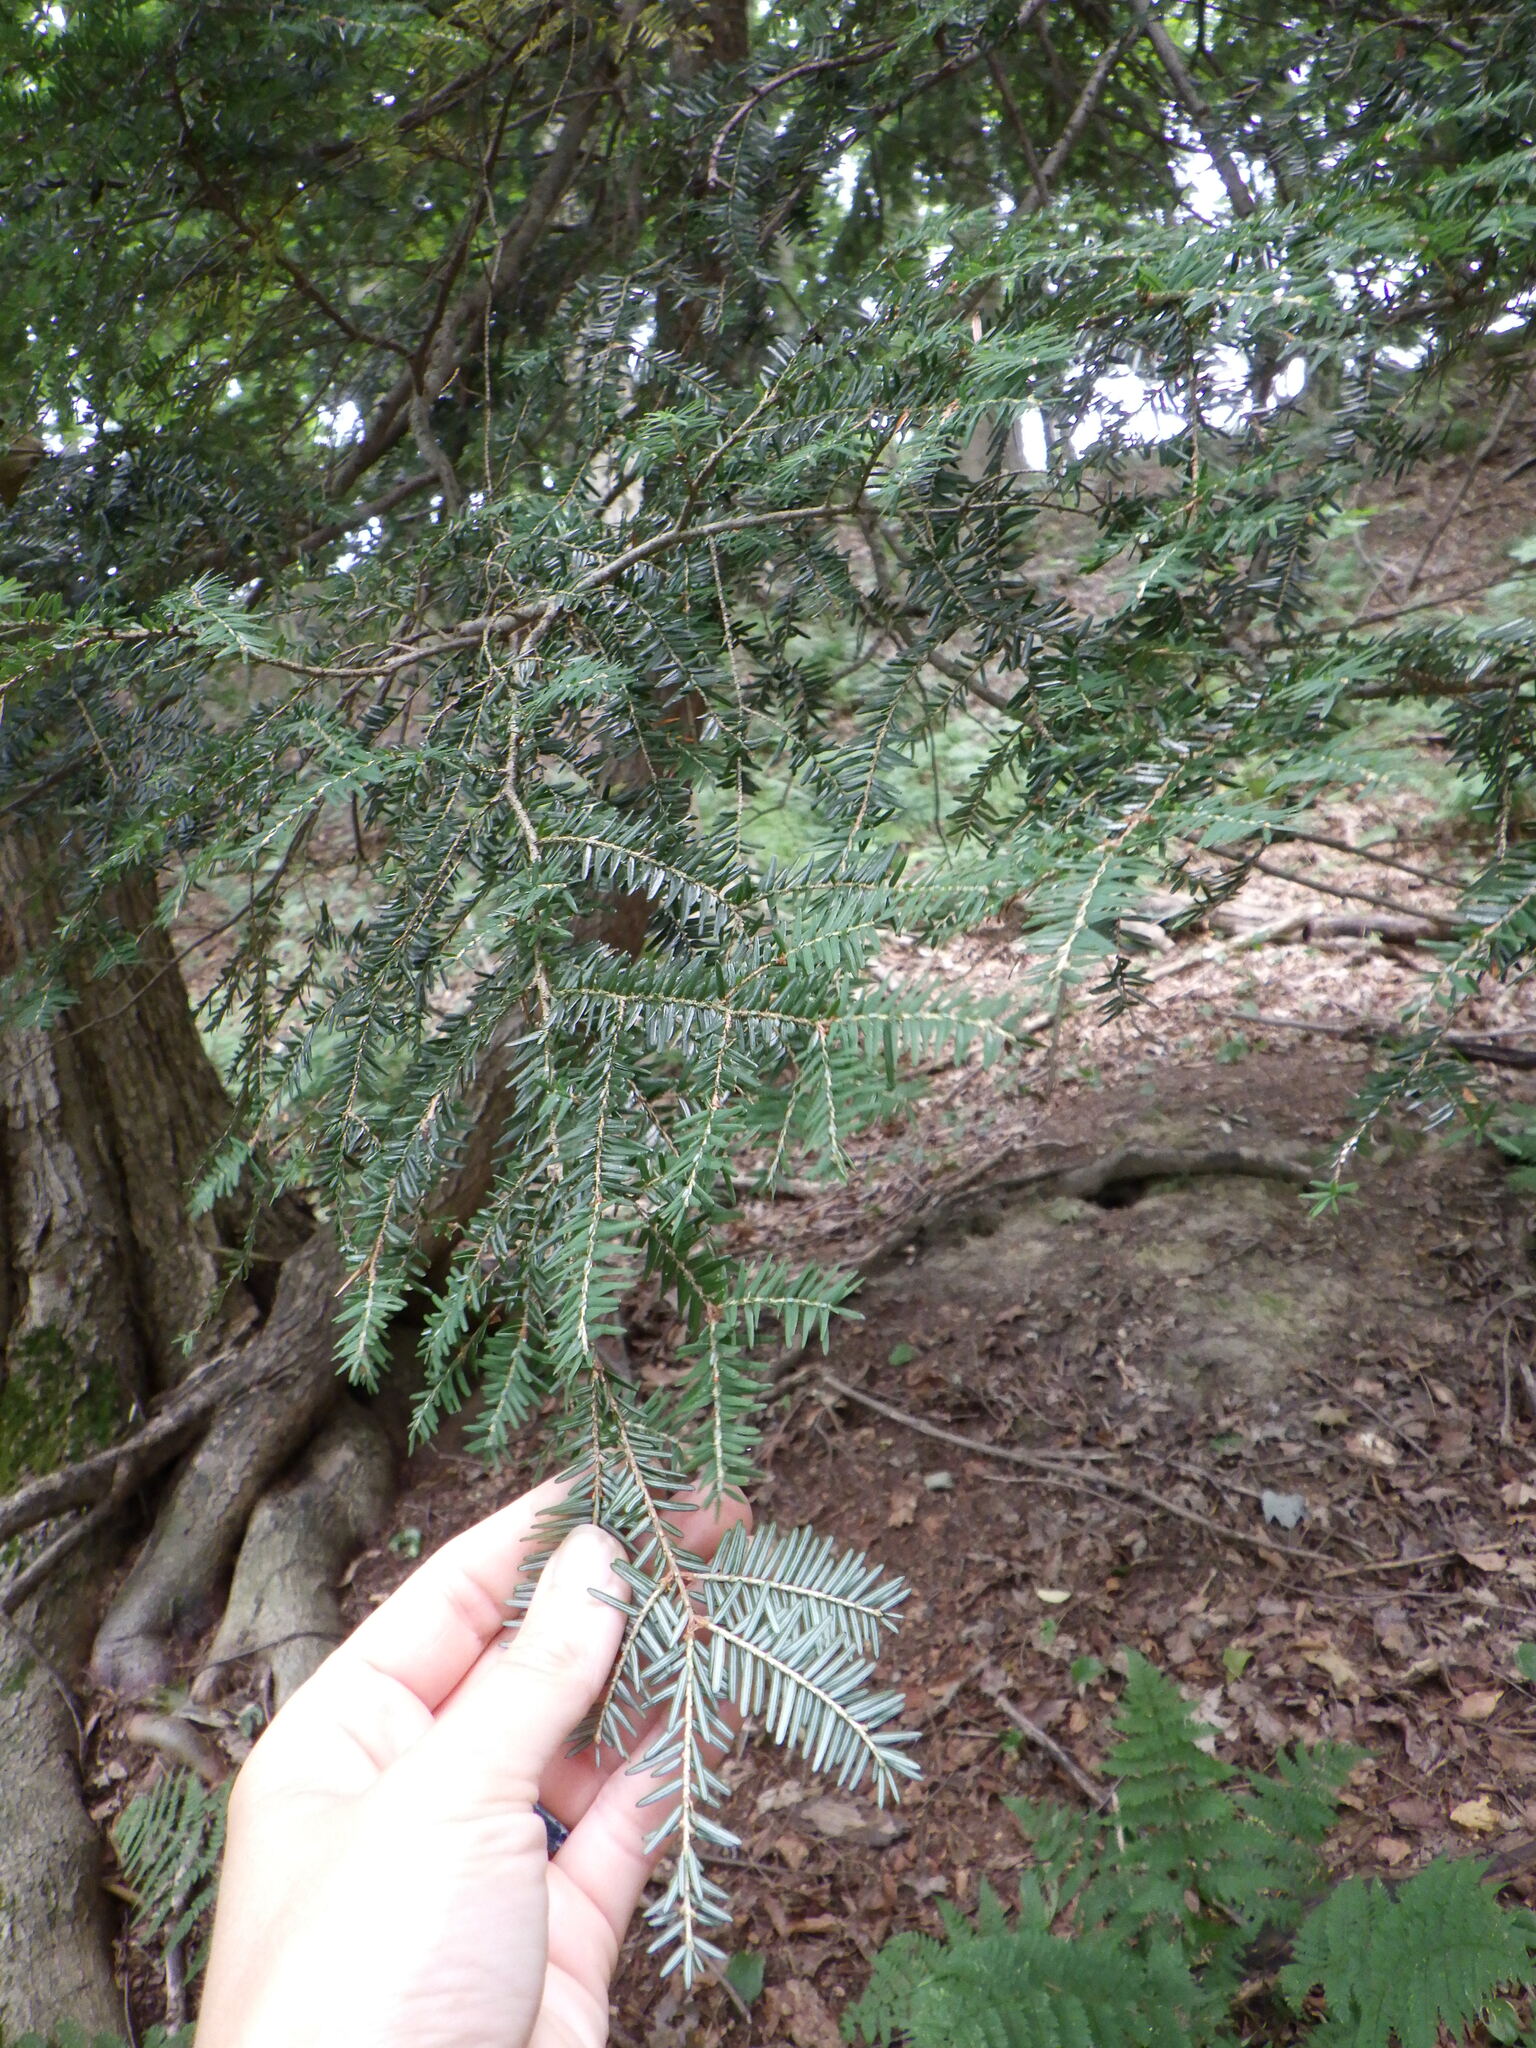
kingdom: Plantae
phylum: Tracheophyta
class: Pinopsida
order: Pinales
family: Pinaceae
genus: Tsuga
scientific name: Tsuga canadensis
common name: Eastern hemlock
